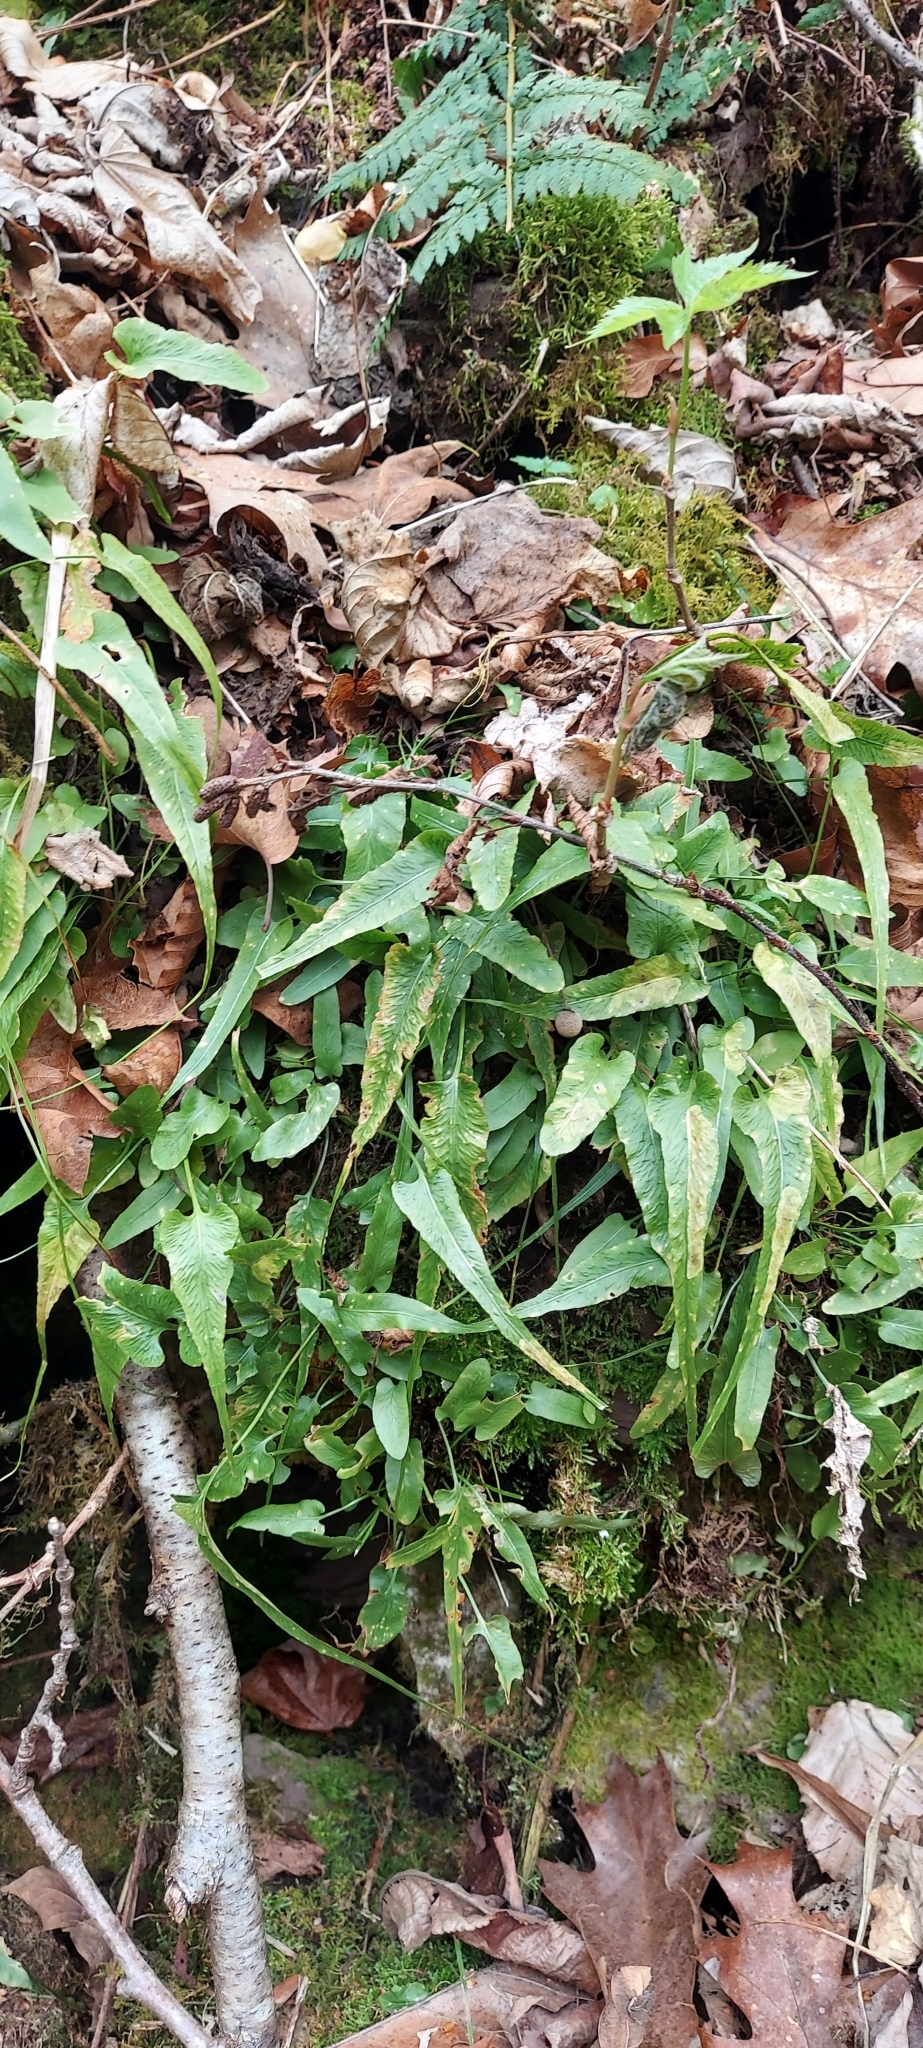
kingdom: Plantae
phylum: Tracheophyta
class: Polypodiopsida
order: Polypodiales
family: Aspleniaceae
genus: Asplenium
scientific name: Asplenium rhizophyllum
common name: Walking fern
